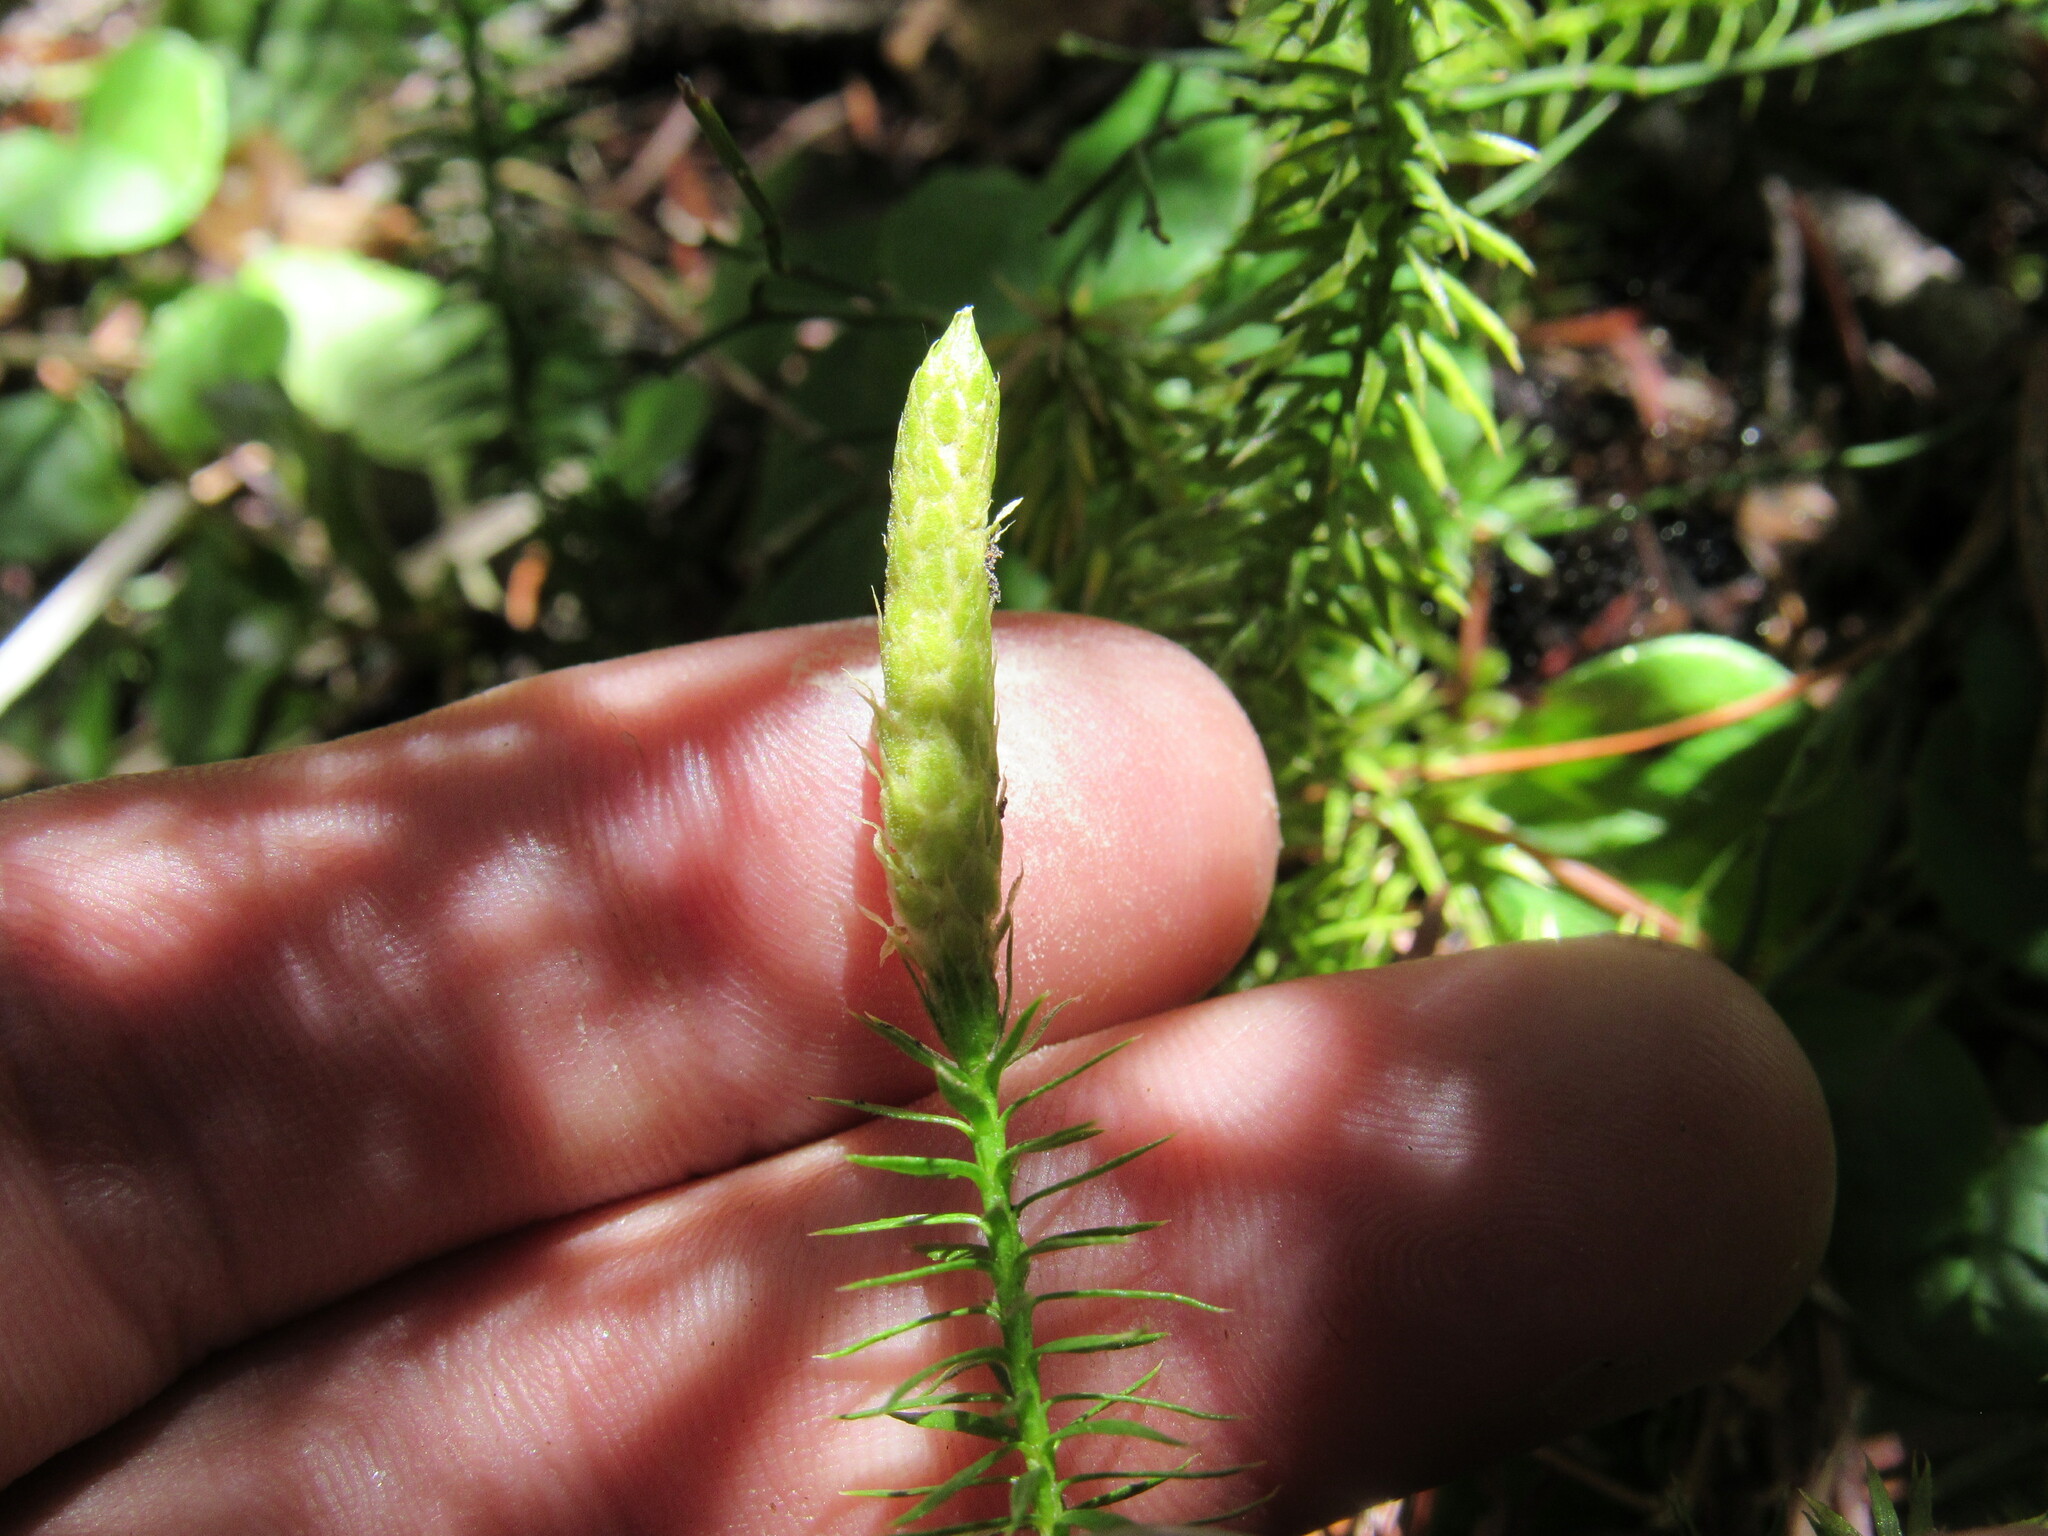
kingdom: Plantae
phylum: Tracheophyta
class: Lycopodiopsida
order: Lycopodiales
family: Lycopodiaceae
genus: Spinulum
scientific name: Spinulum annotinum
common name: Interrupted club-moss
